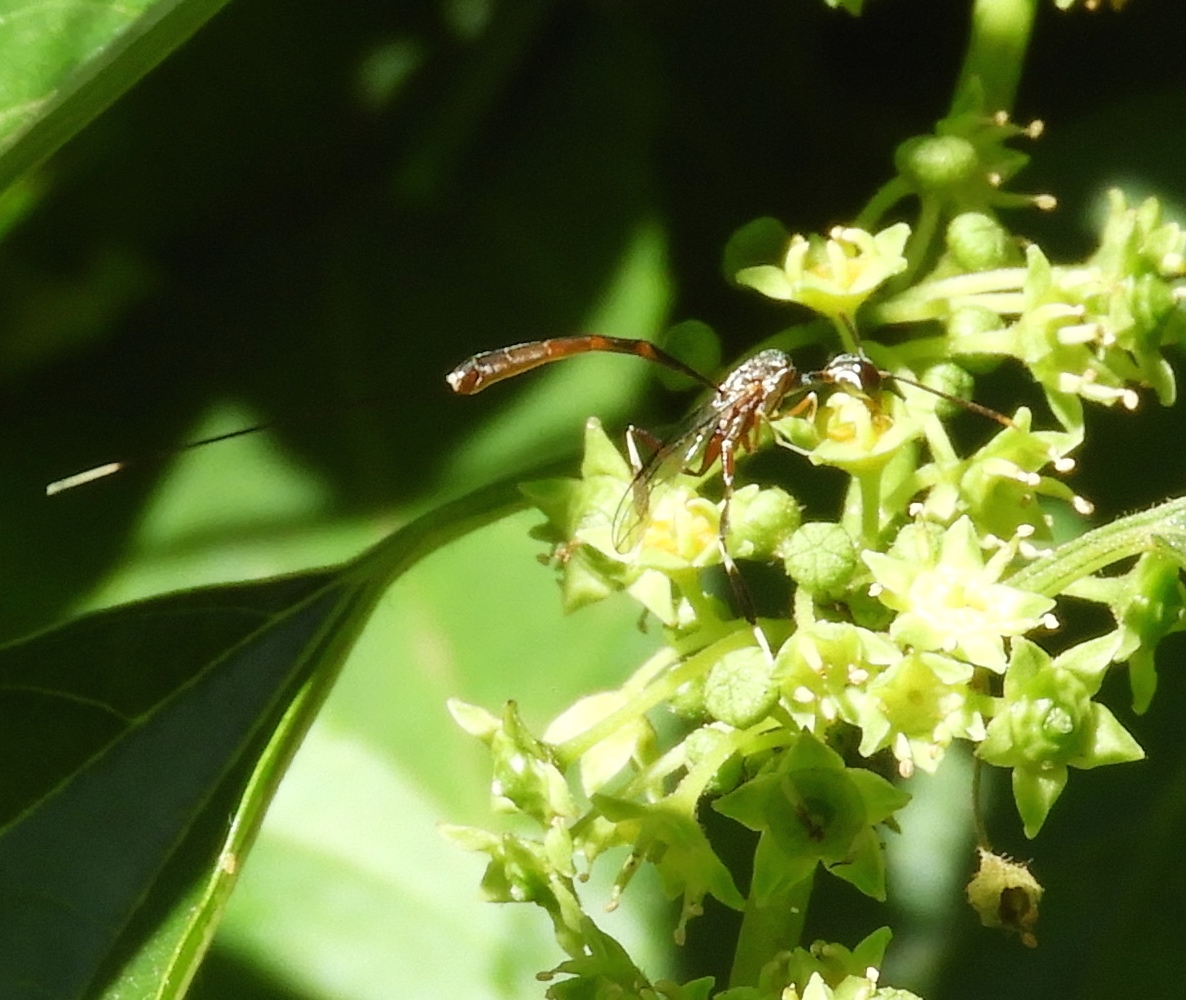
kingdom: Animalia
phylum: Arthropoda
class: Insecta
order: Hymenoptera
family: Gasteruptiidae
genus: Gasteruption
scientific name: Gasteruption
